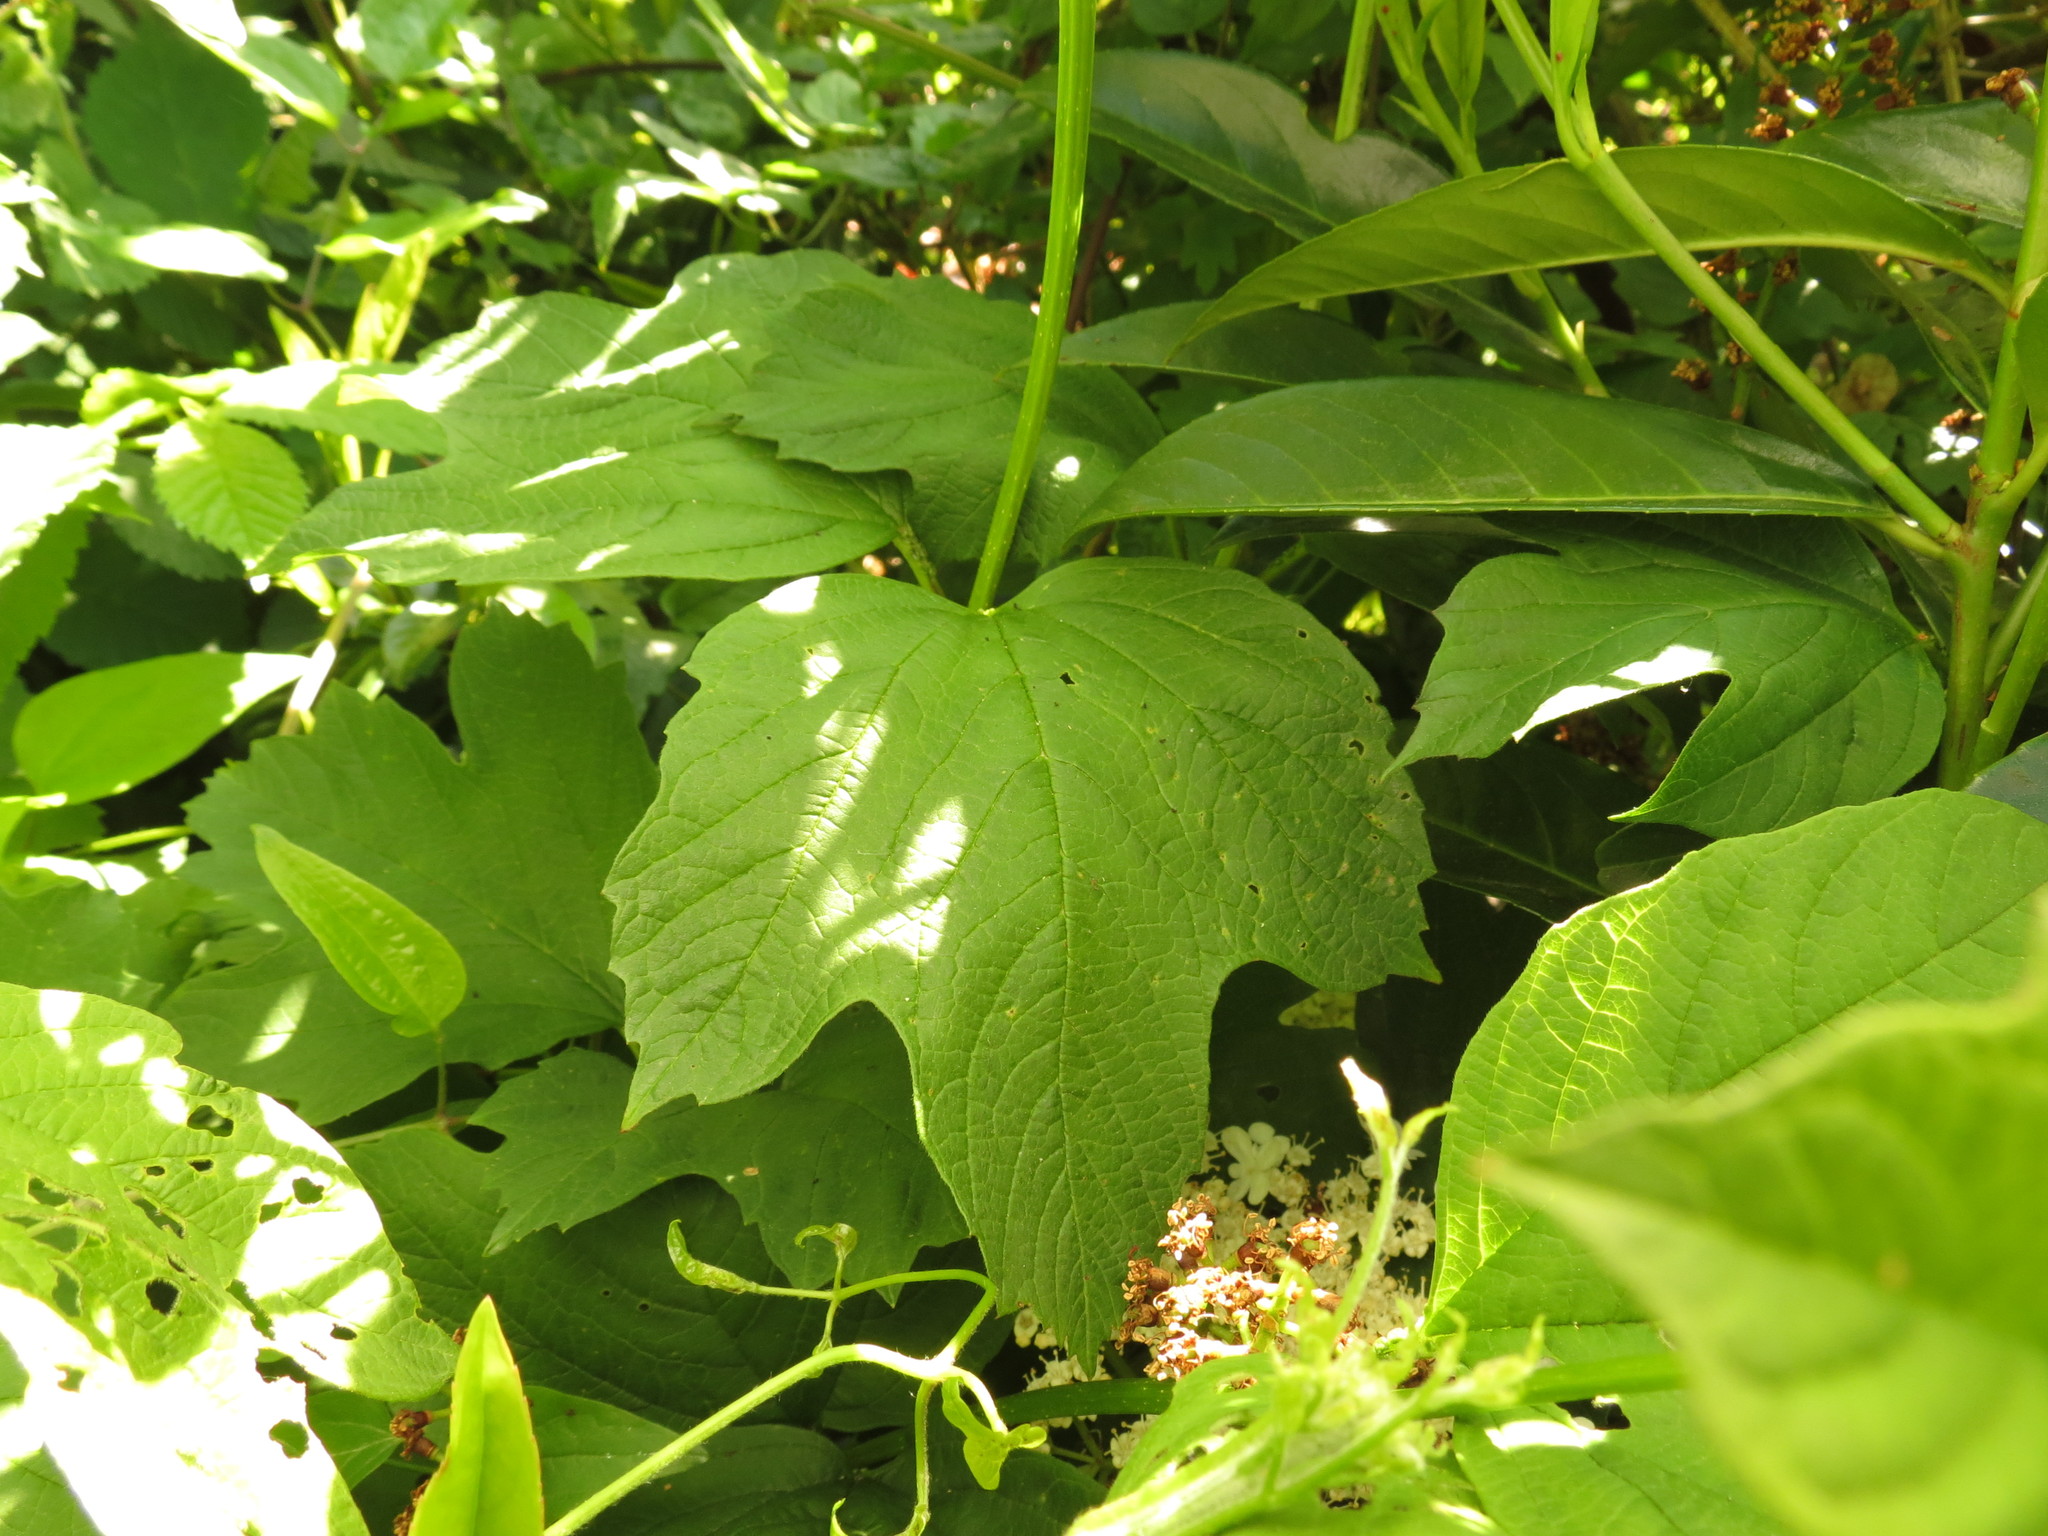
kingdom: Plantae
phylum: Tracheophyta
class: Magnoliopsida
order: Dipsacales
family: Viburnaceae
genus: Viburnum
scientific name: Viburnum opulus
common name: Guelder-rose
